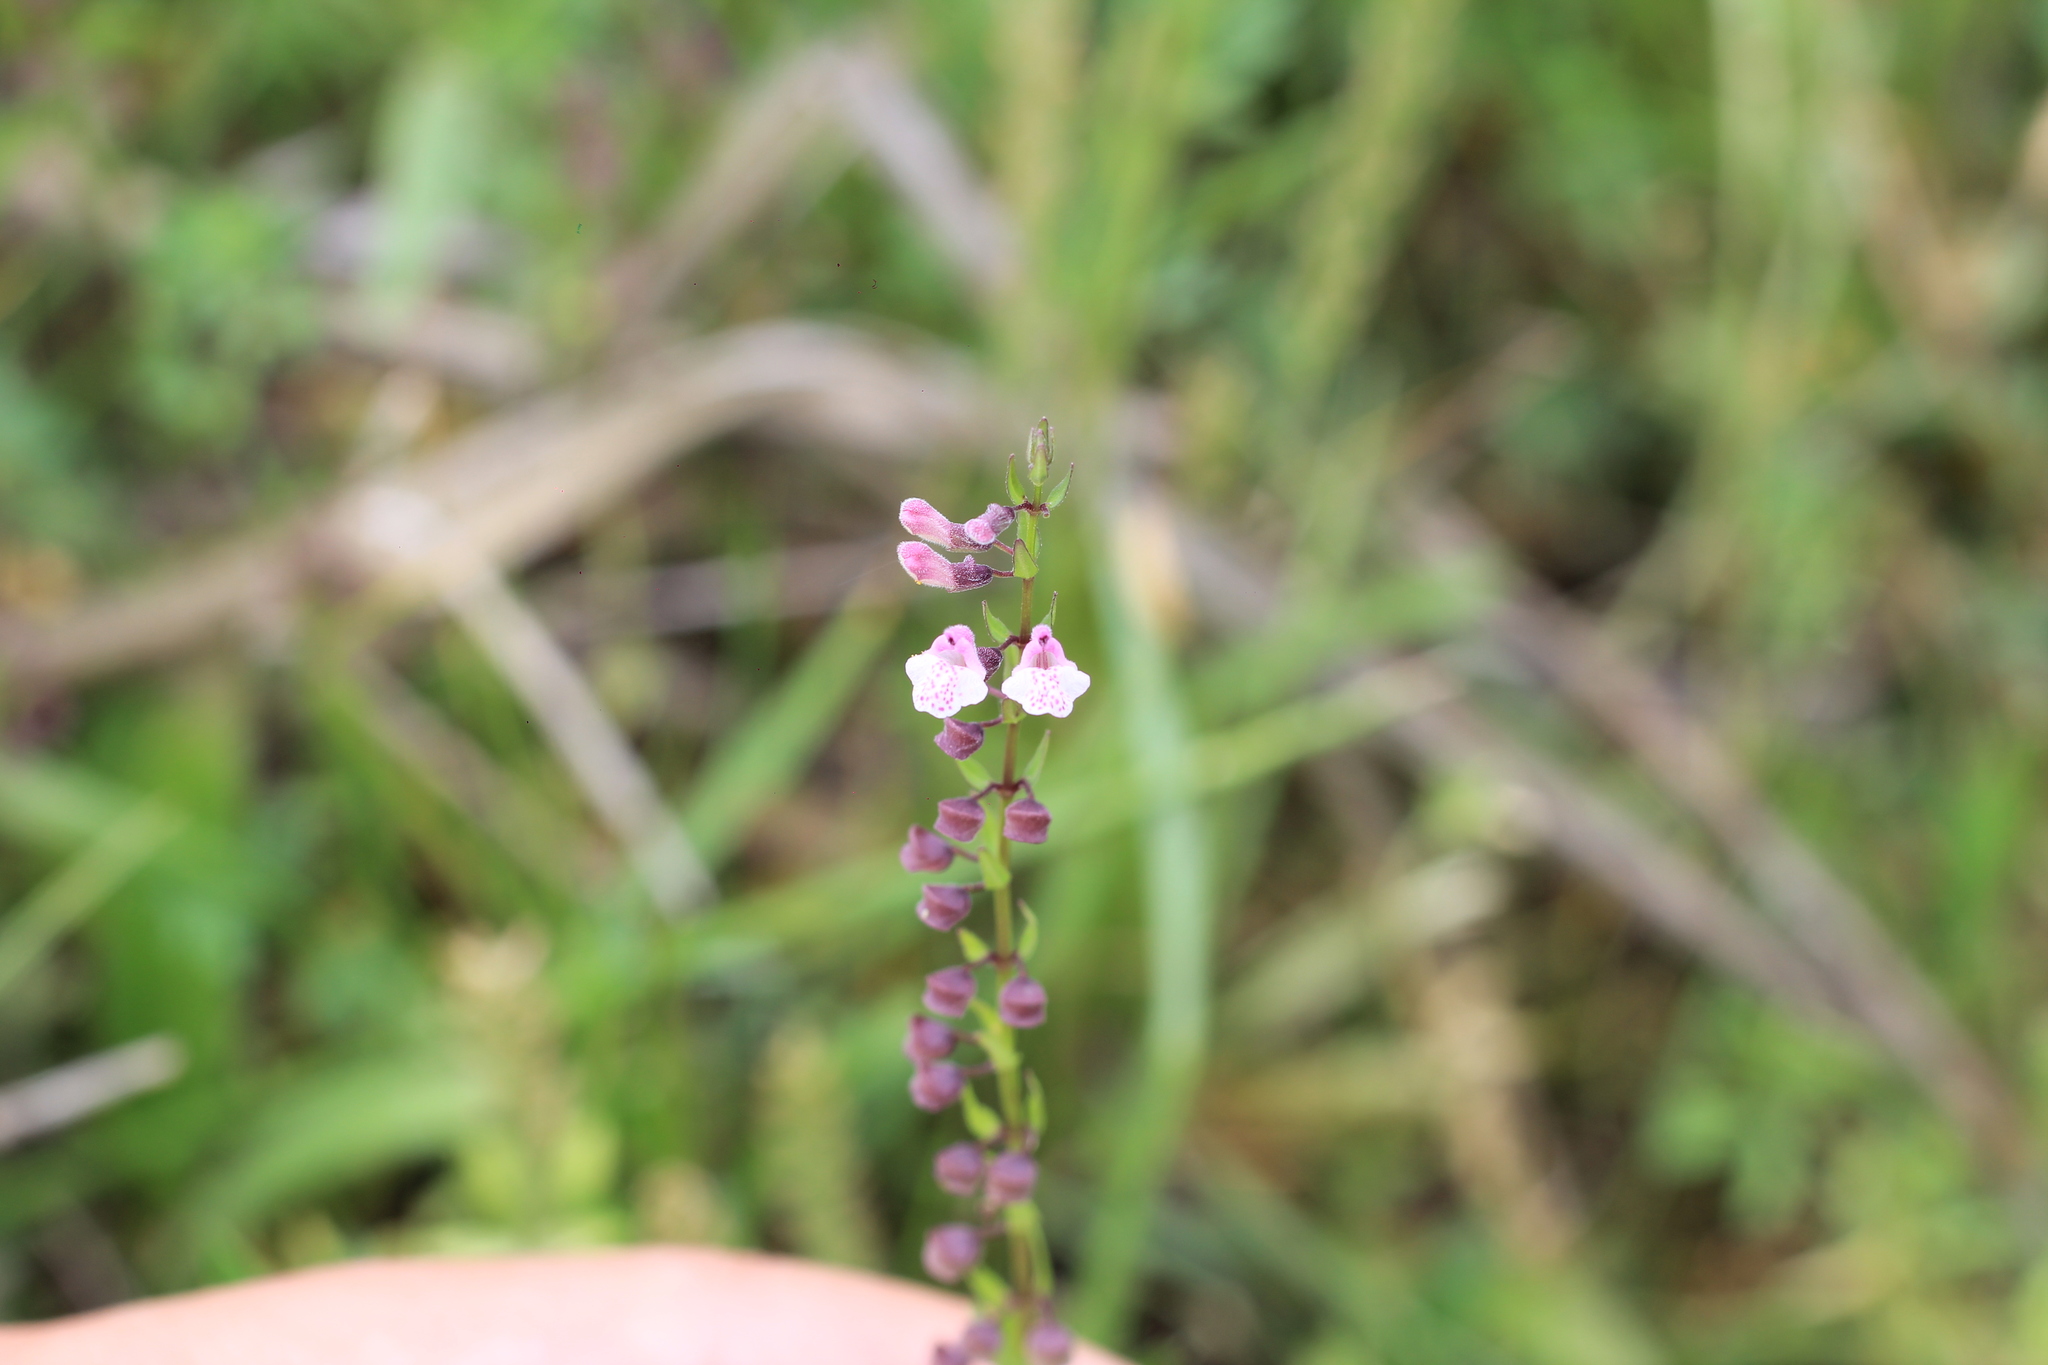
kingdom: Plantae
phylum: Tracheophyta
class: Magnoliopsida
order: Lamiales
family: Lamiaceae
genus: Scutellaria
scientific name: Scutellaria racemosa
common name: South american skullcap
